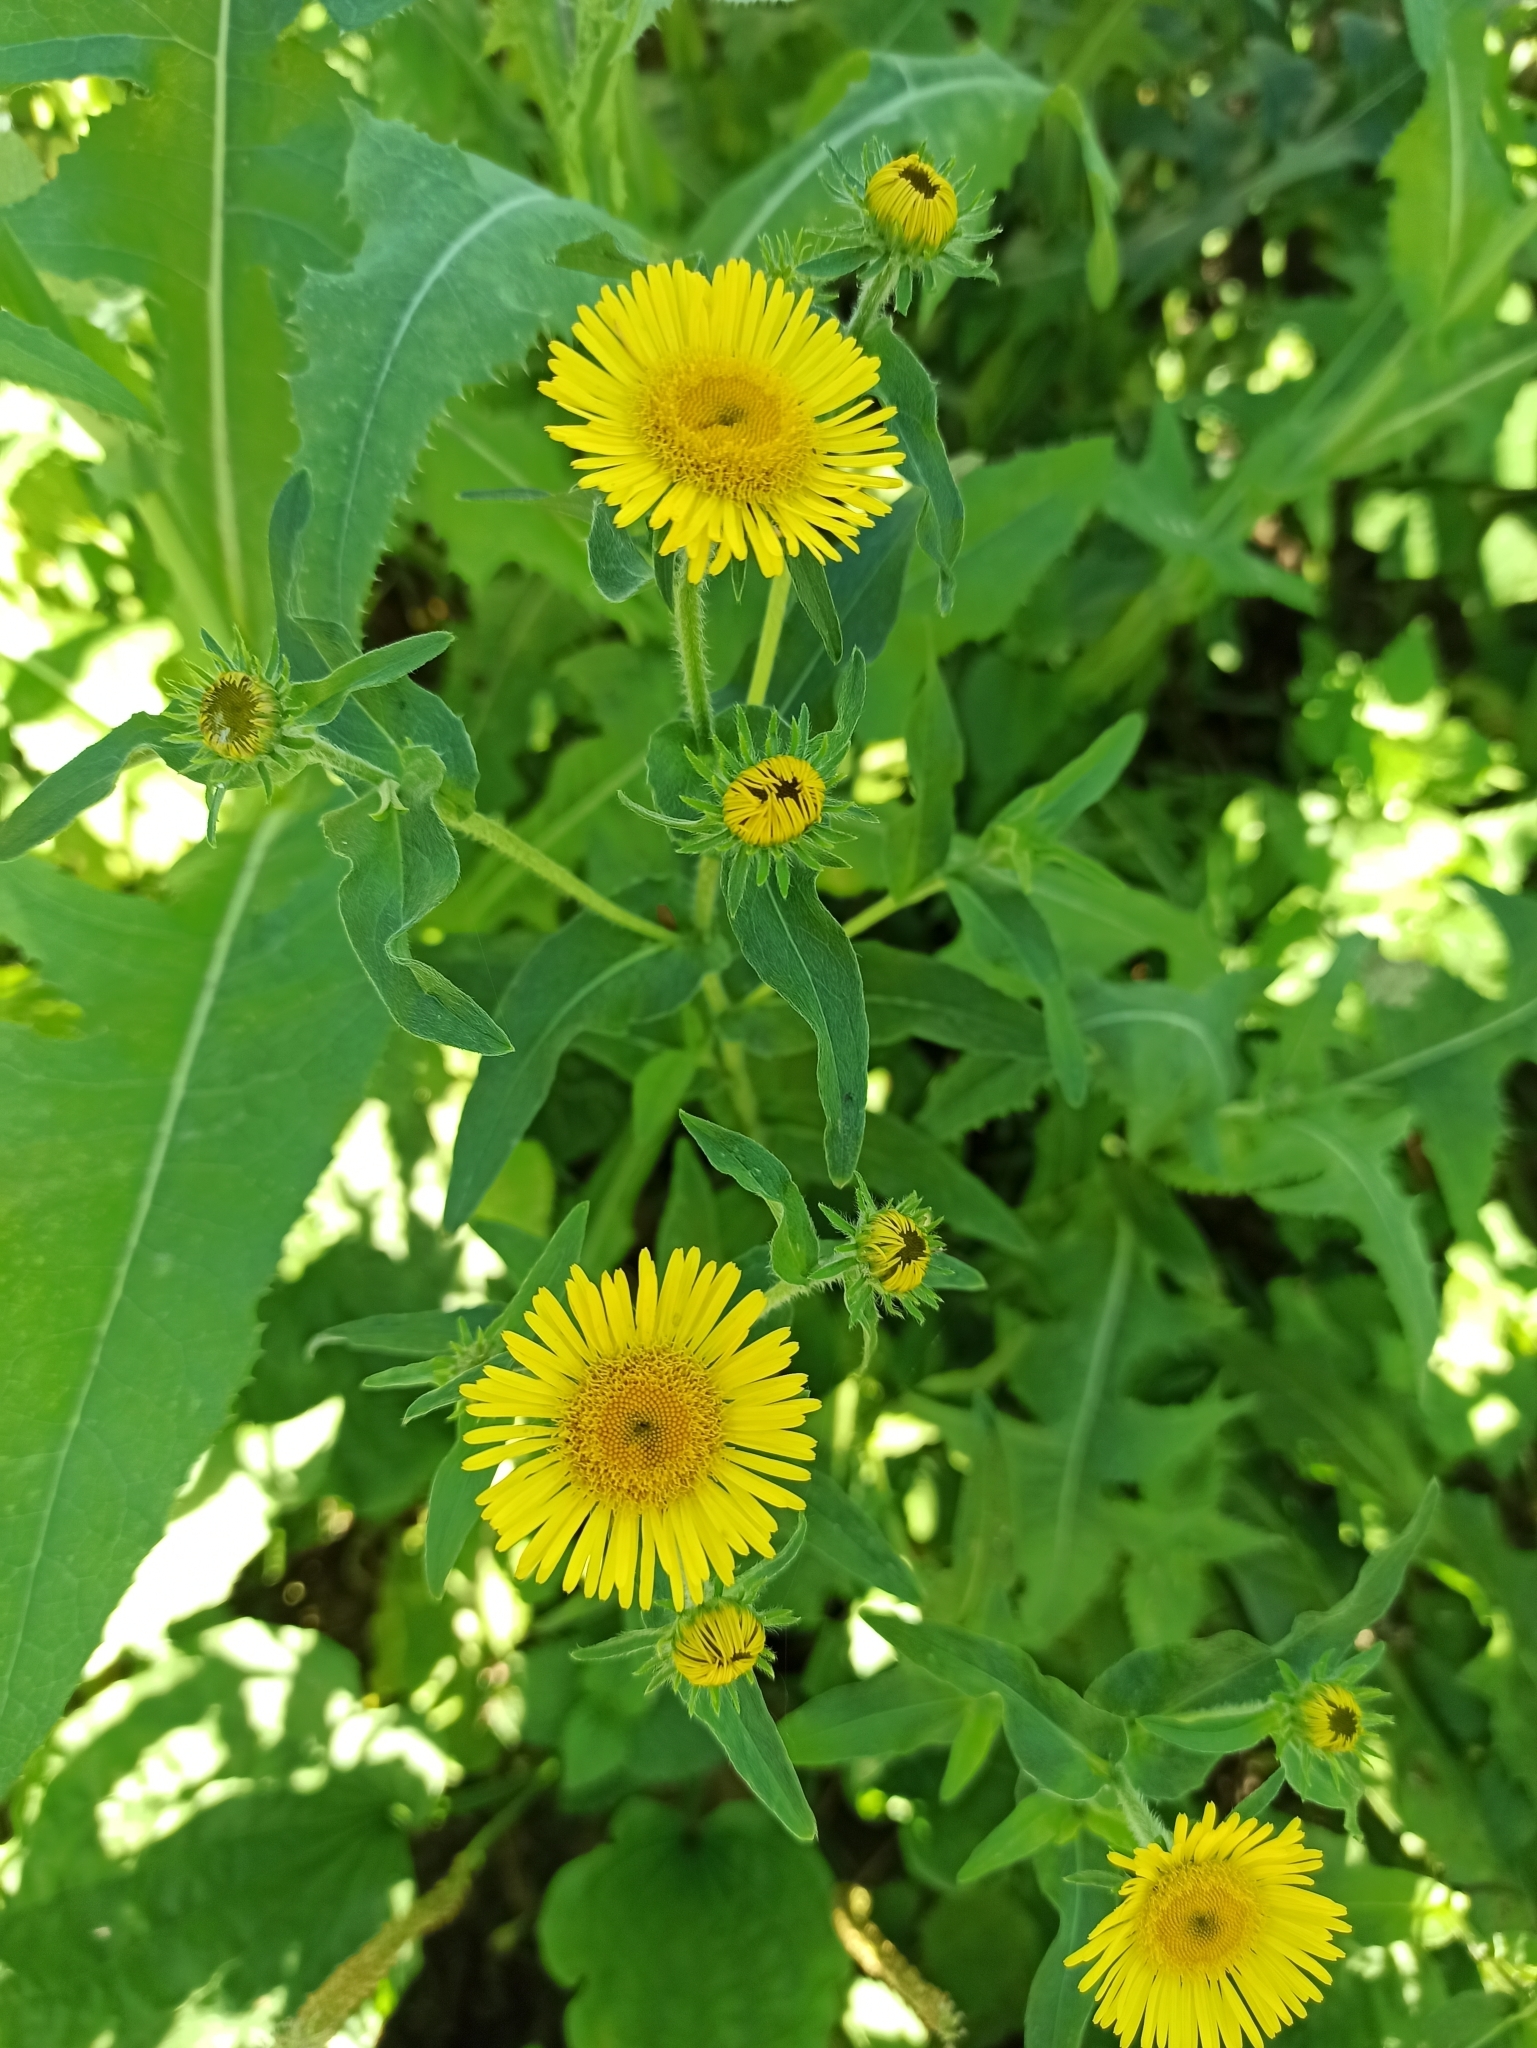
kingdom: Plantae
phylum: Tracheophyta
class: Magnoliopsida
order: Asterales
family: Asteraceae
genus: Pentanema
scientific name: Pentanema britannicum
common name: British elecampane
